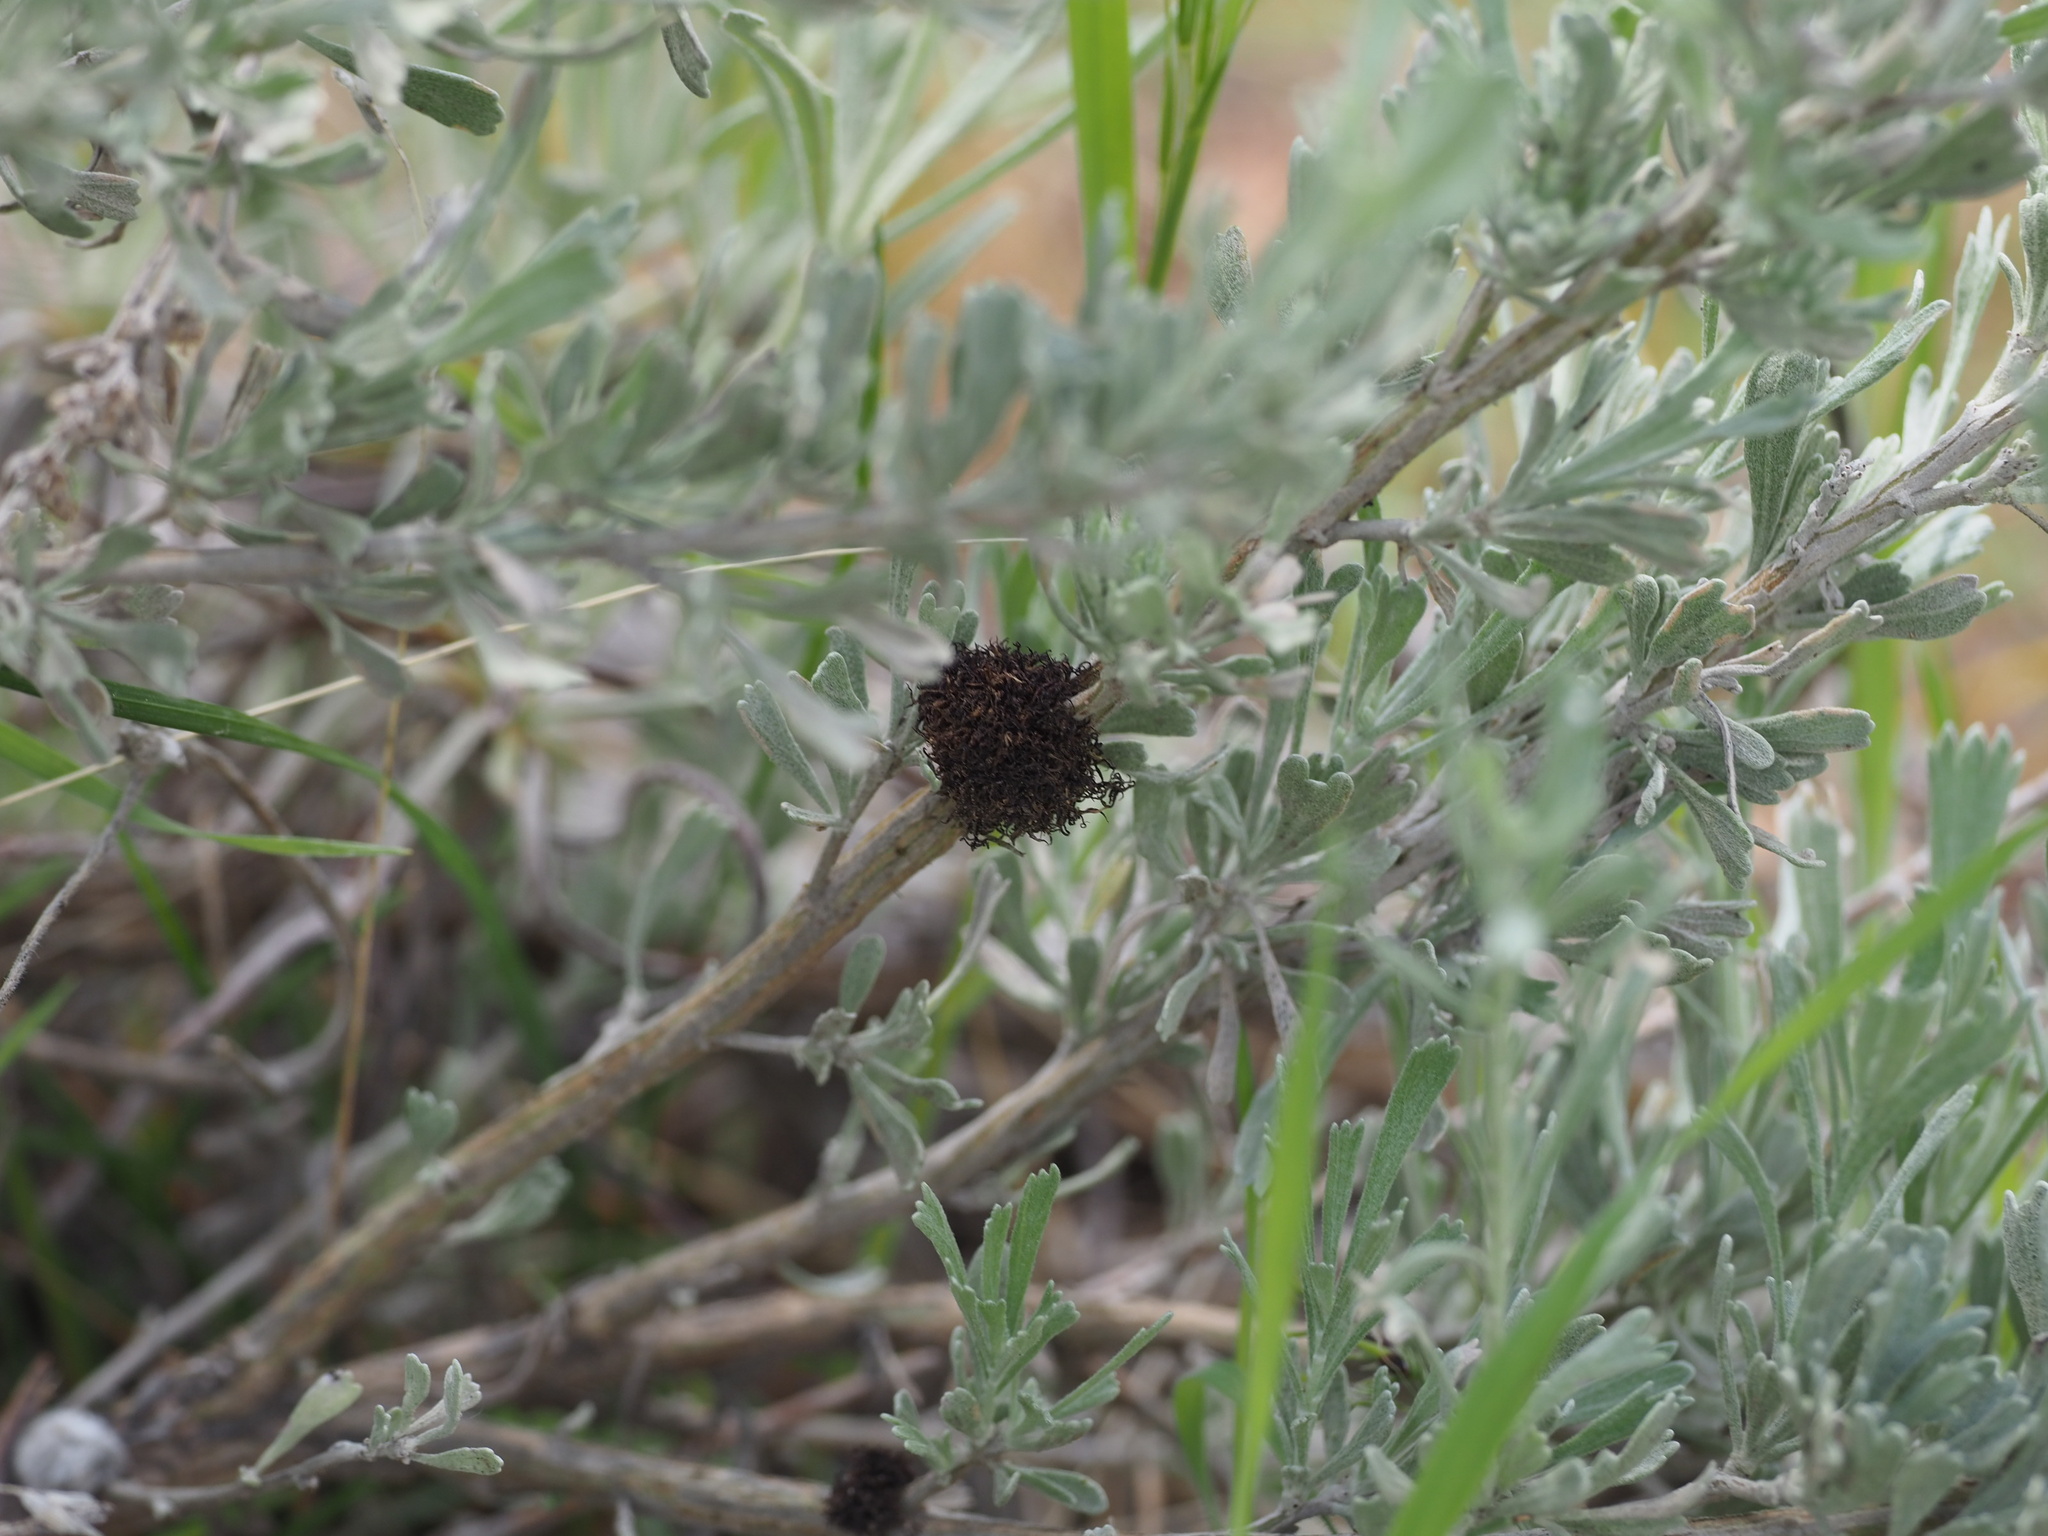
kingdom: Animalia
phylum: Arthropoda
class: Insecta
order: Diptera
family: Cecidomyiidae
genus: Rhopalomyia
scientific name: Rhopalomyia medusa
